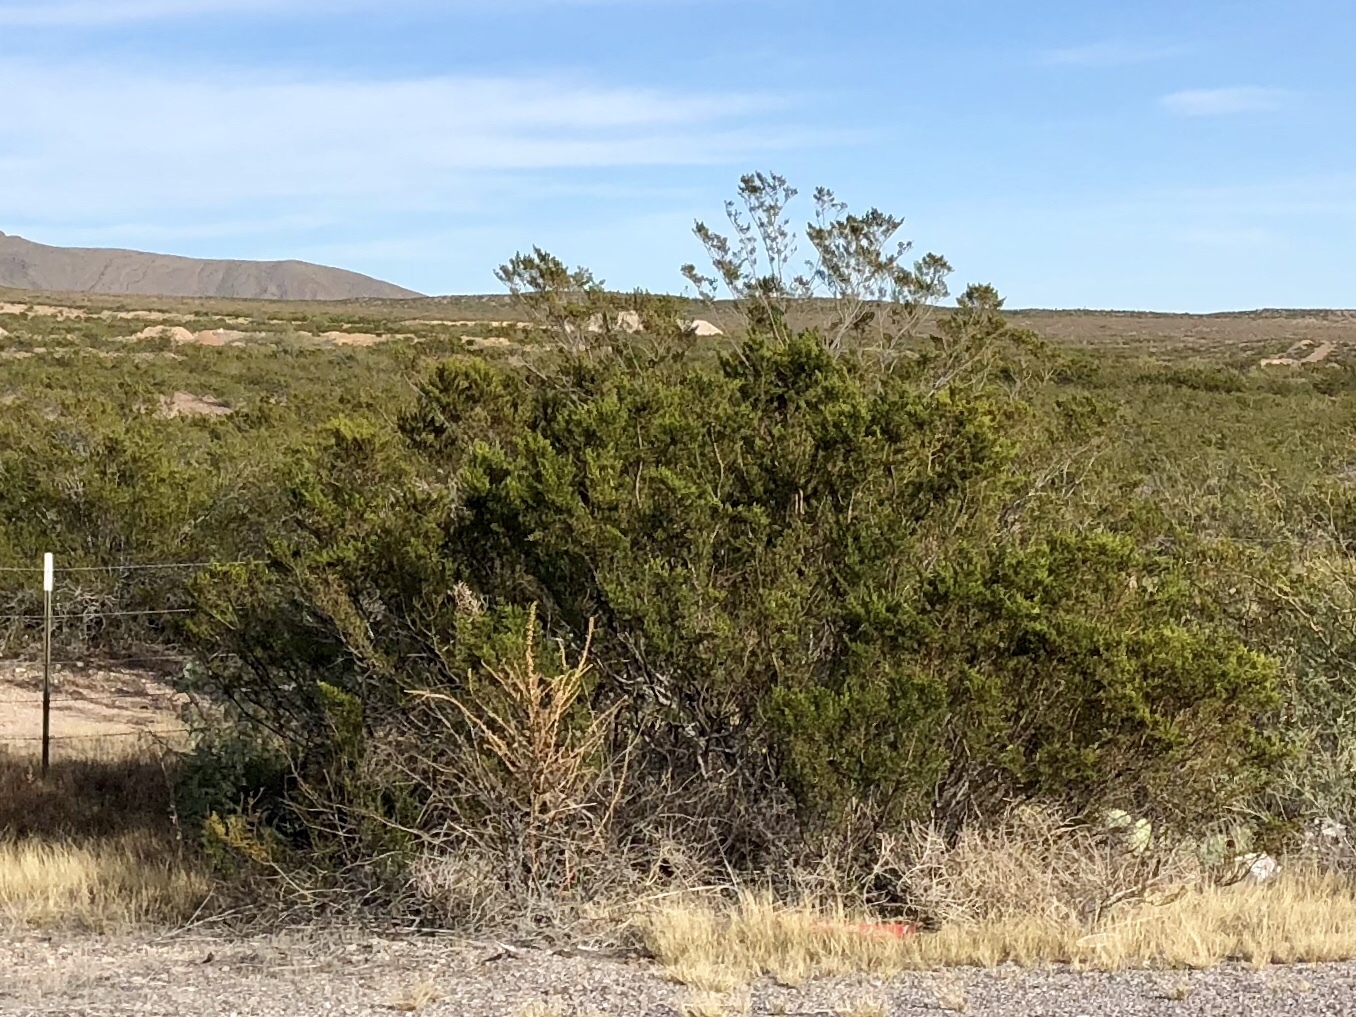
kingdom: Plantae
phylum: Tracheophyta
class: Magnoliopsida
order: Zygophyllales
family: Zygophyllaceae
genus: Larrea
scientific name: Larrea tridentata
